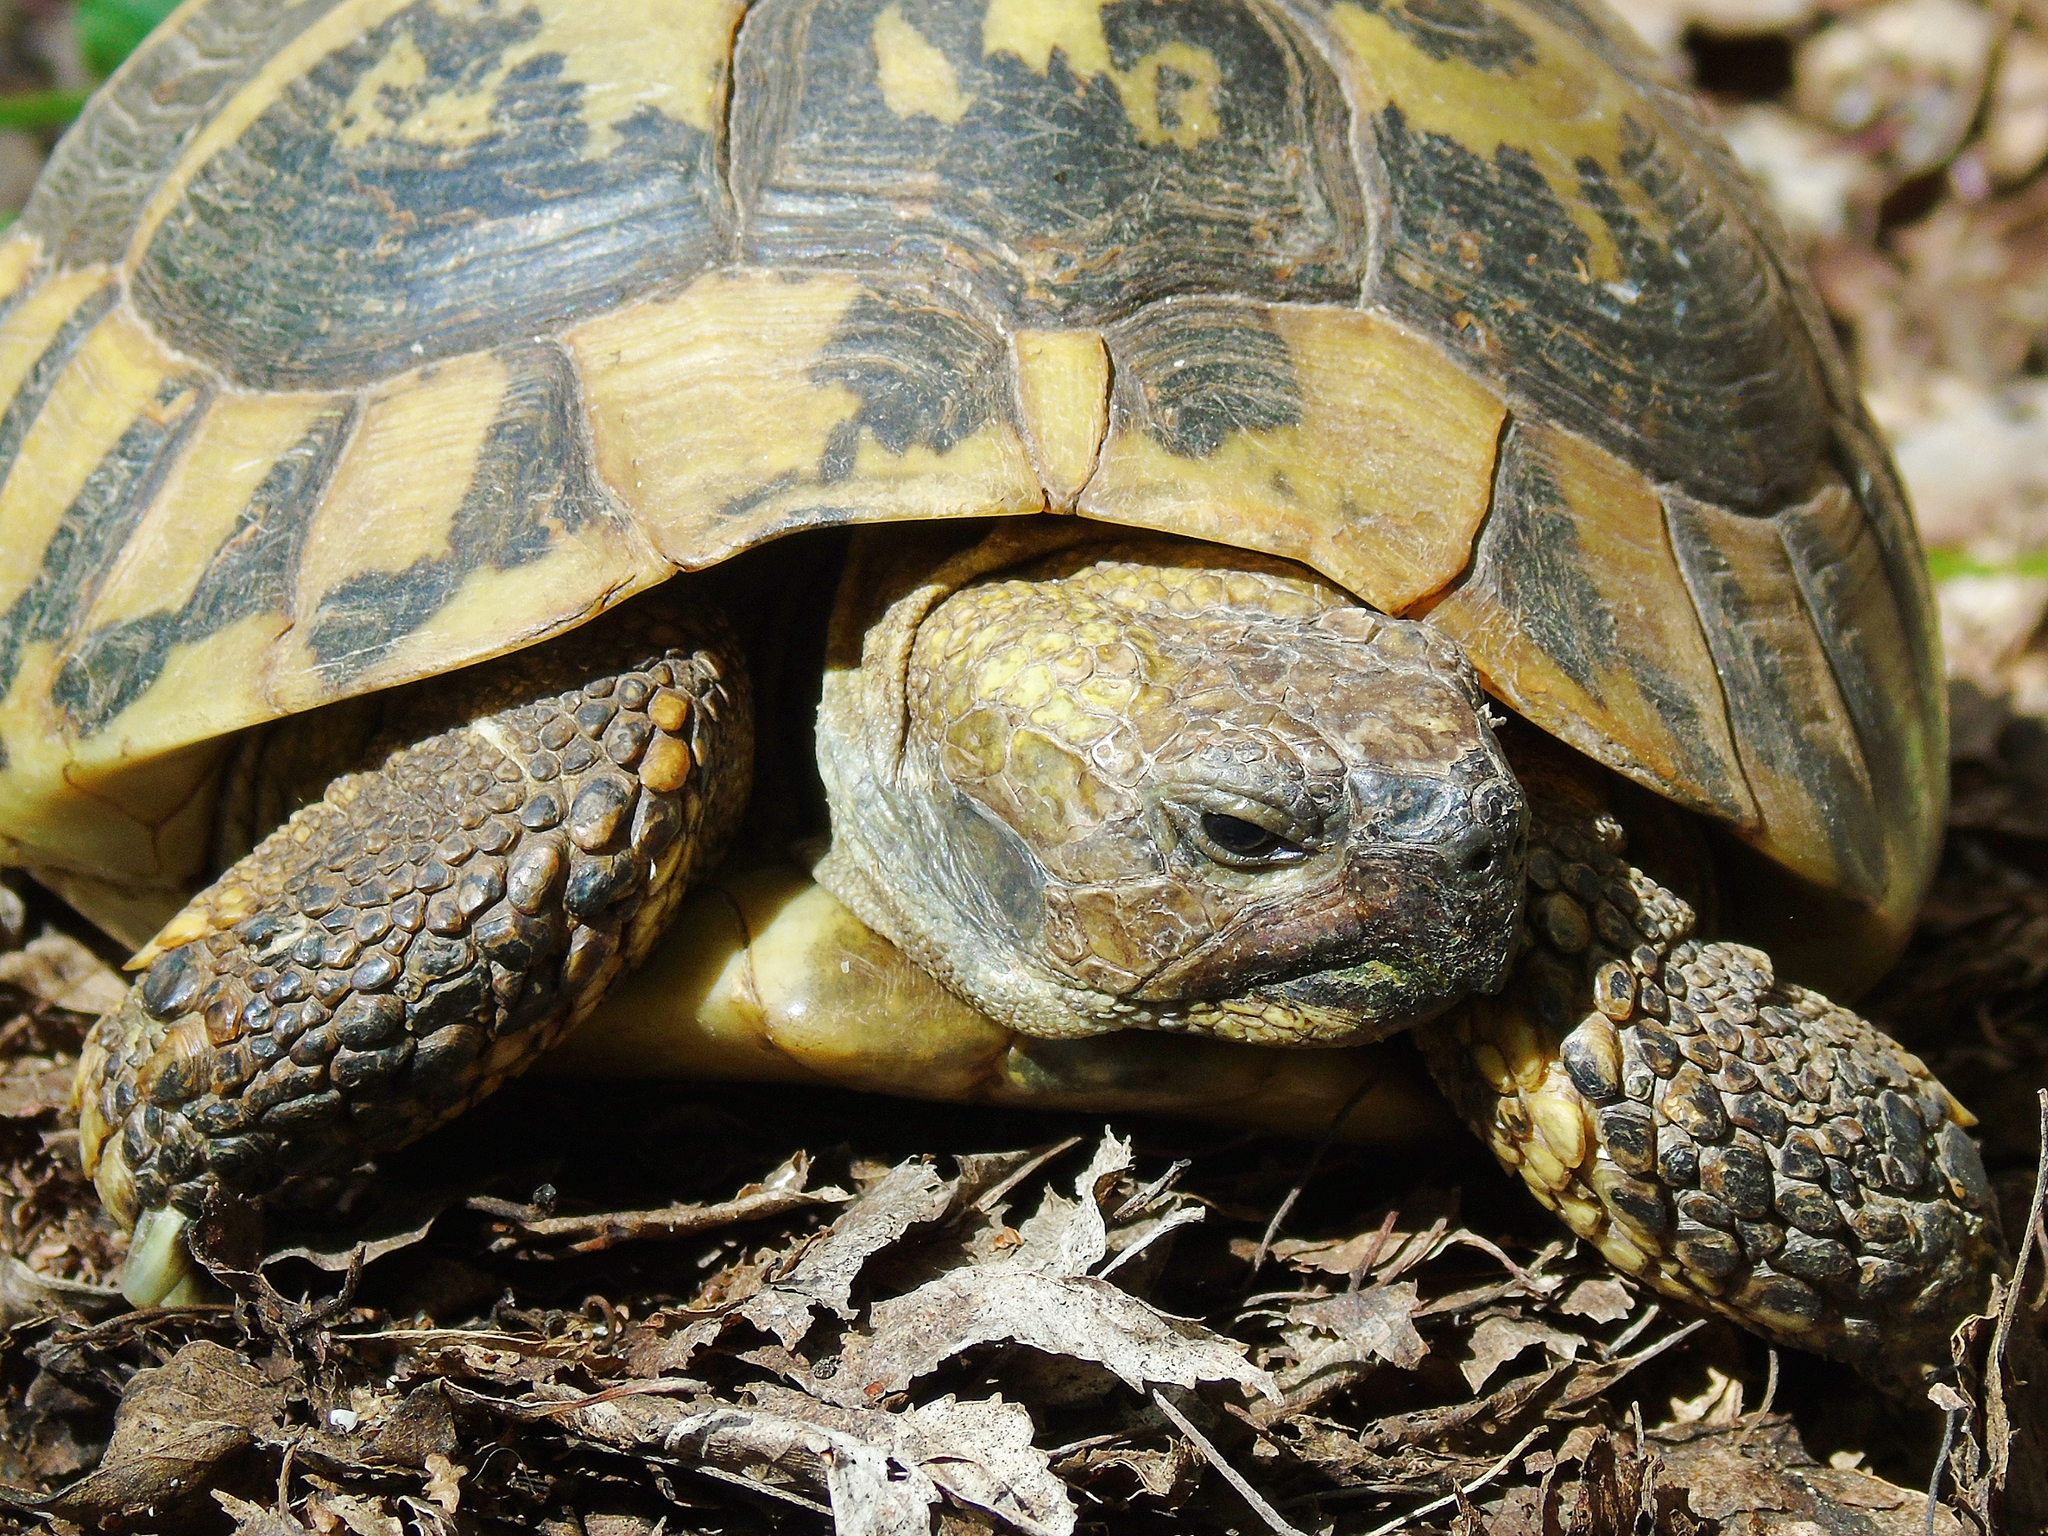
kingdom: Animalia
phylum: Chordata
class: Testudines
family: Testudinidae
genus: Testudo
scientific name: Testudo hermanni
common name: Hermann's tortoise
